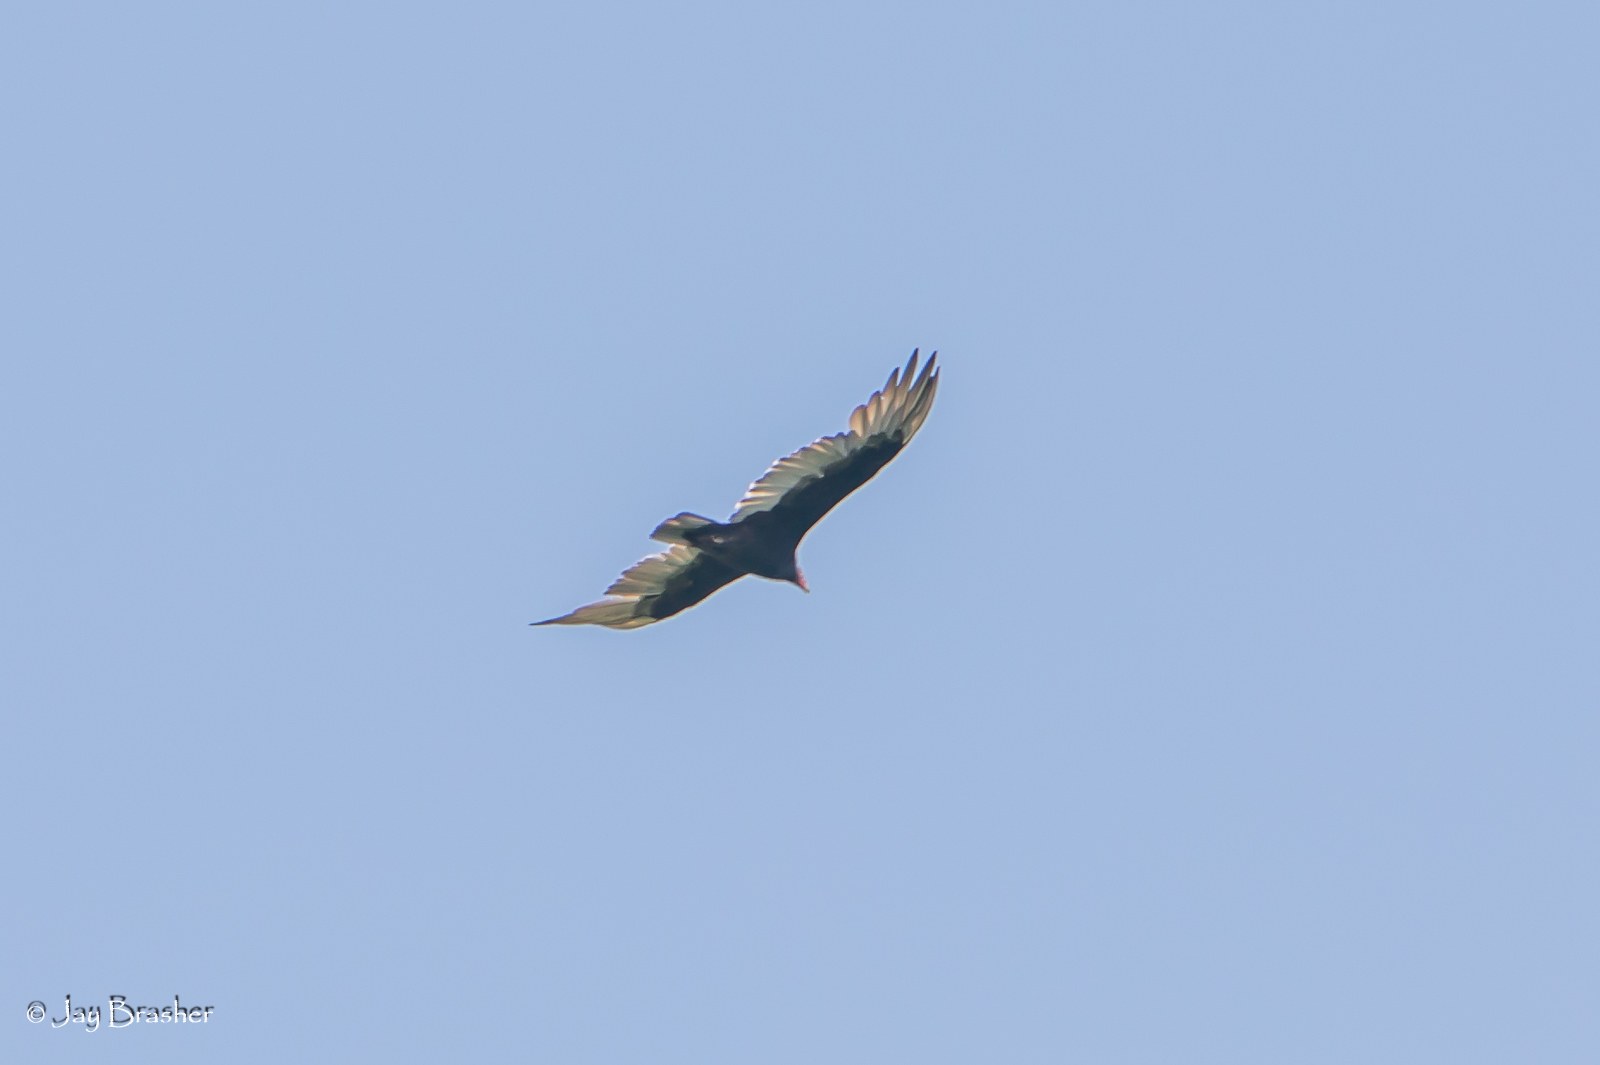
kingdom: Animalia
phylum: Chordata
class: Aves
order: Accipitriformes
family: Cathartidae
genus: Cathartes
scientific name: Cathartes aura
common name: Turkey vulture
